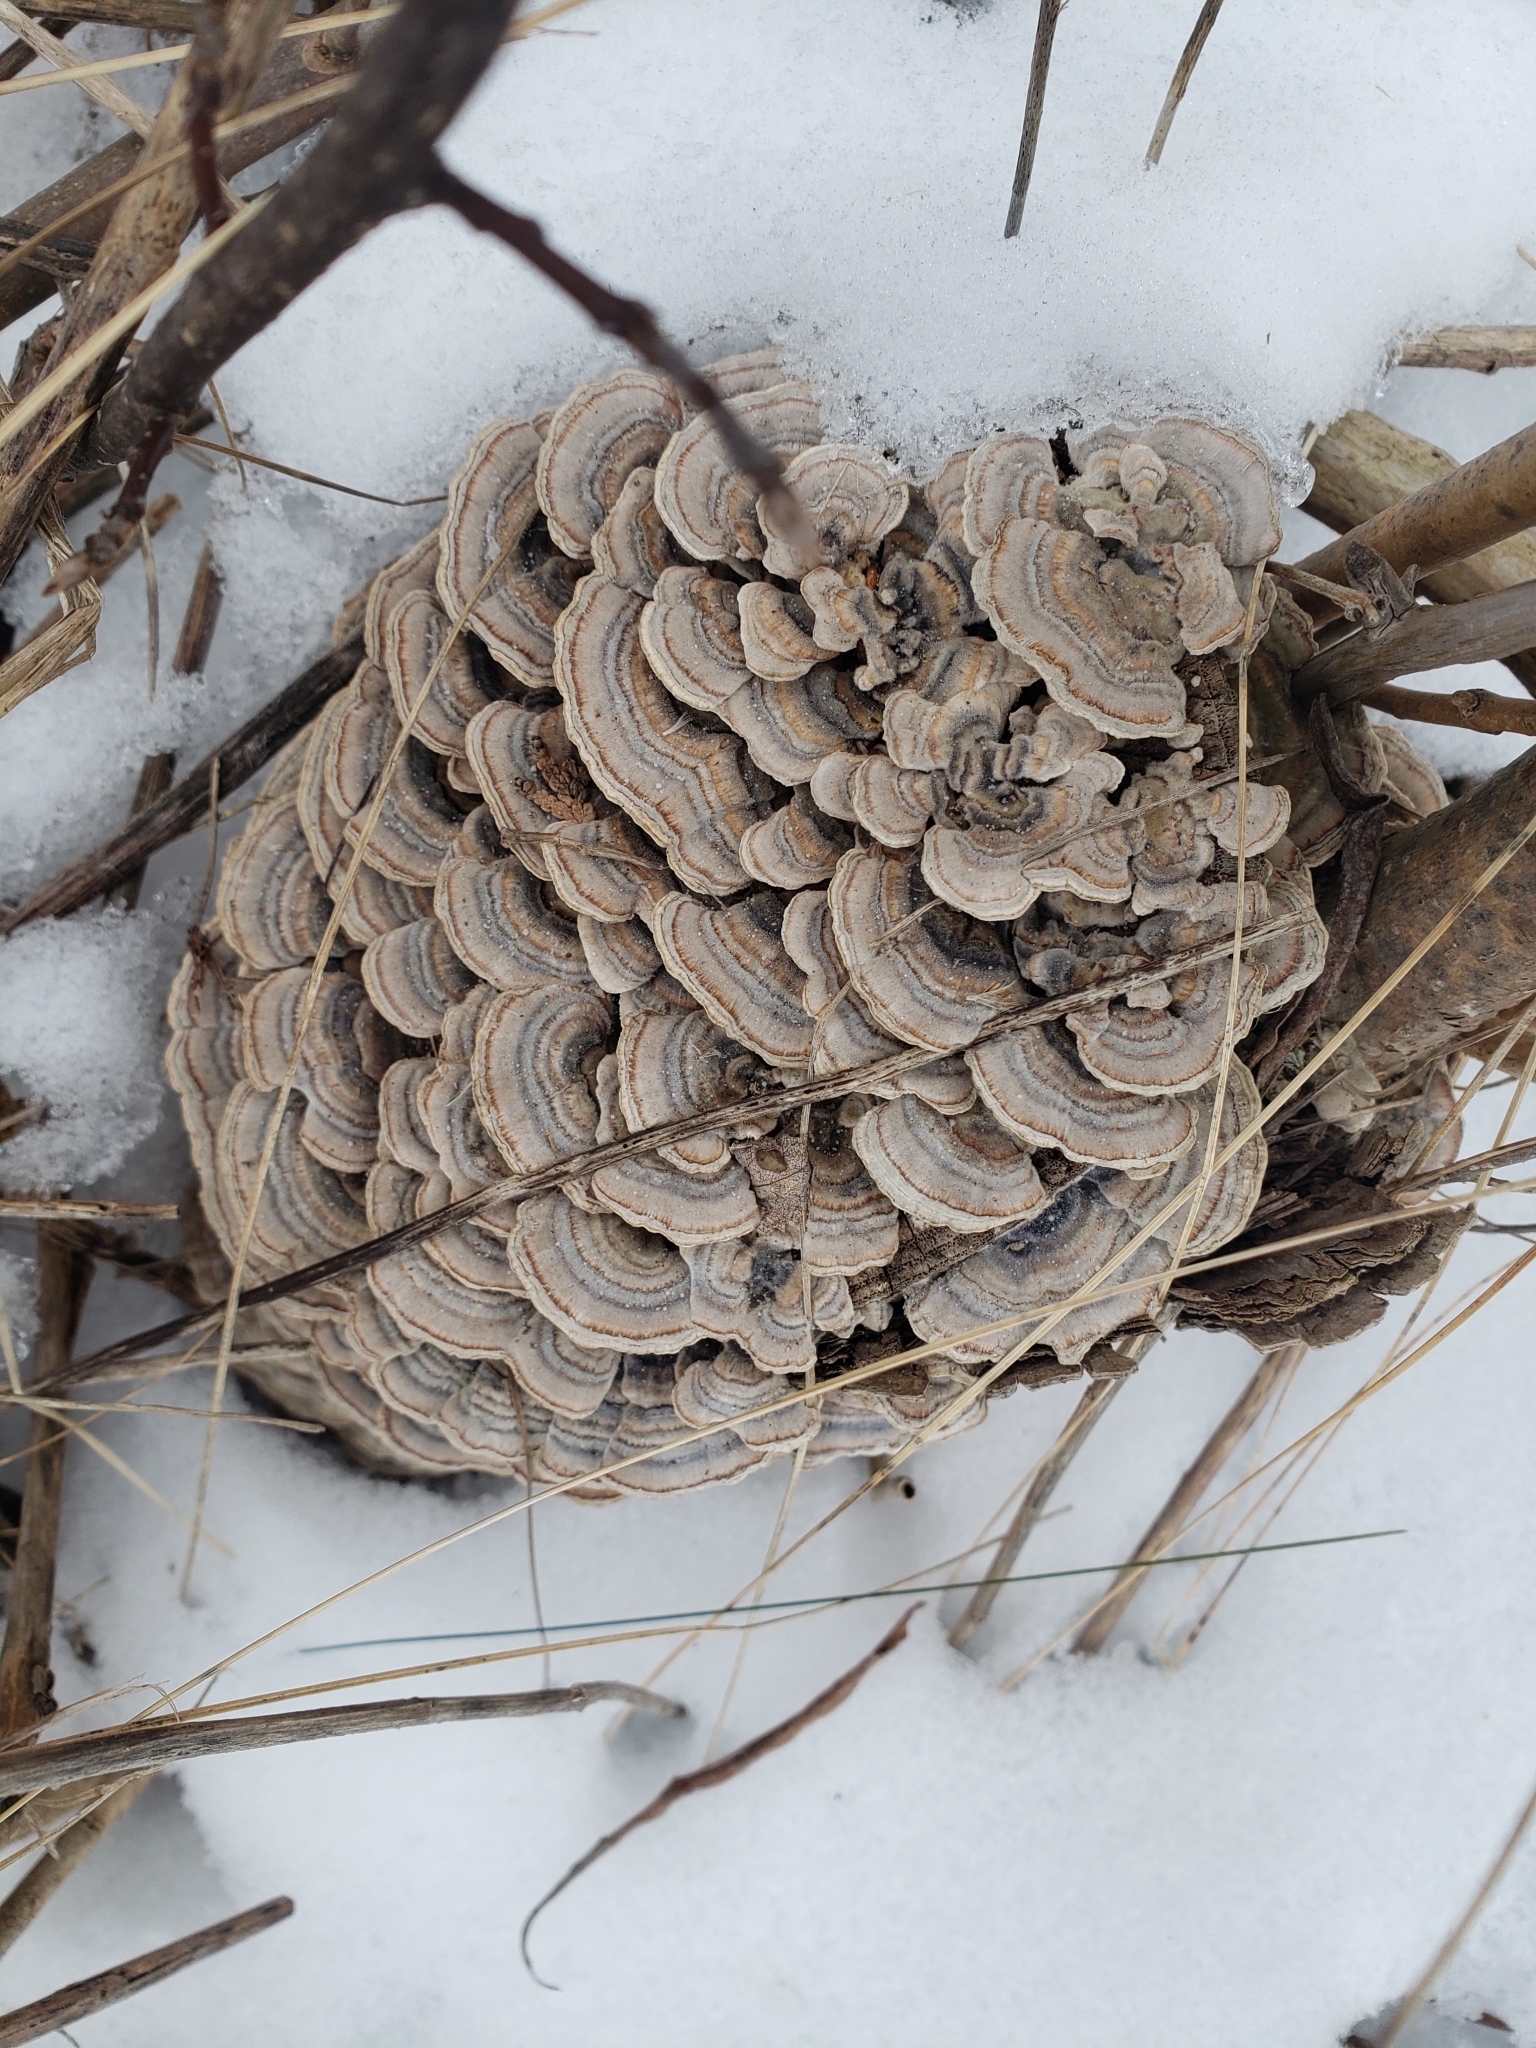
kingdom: Fungi
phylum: Basidiomycota
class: Agaricomycetes
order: Polyporales
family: Polyporaceae
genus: Trametes
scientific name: Trametes versicolor
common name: Turkeytail
